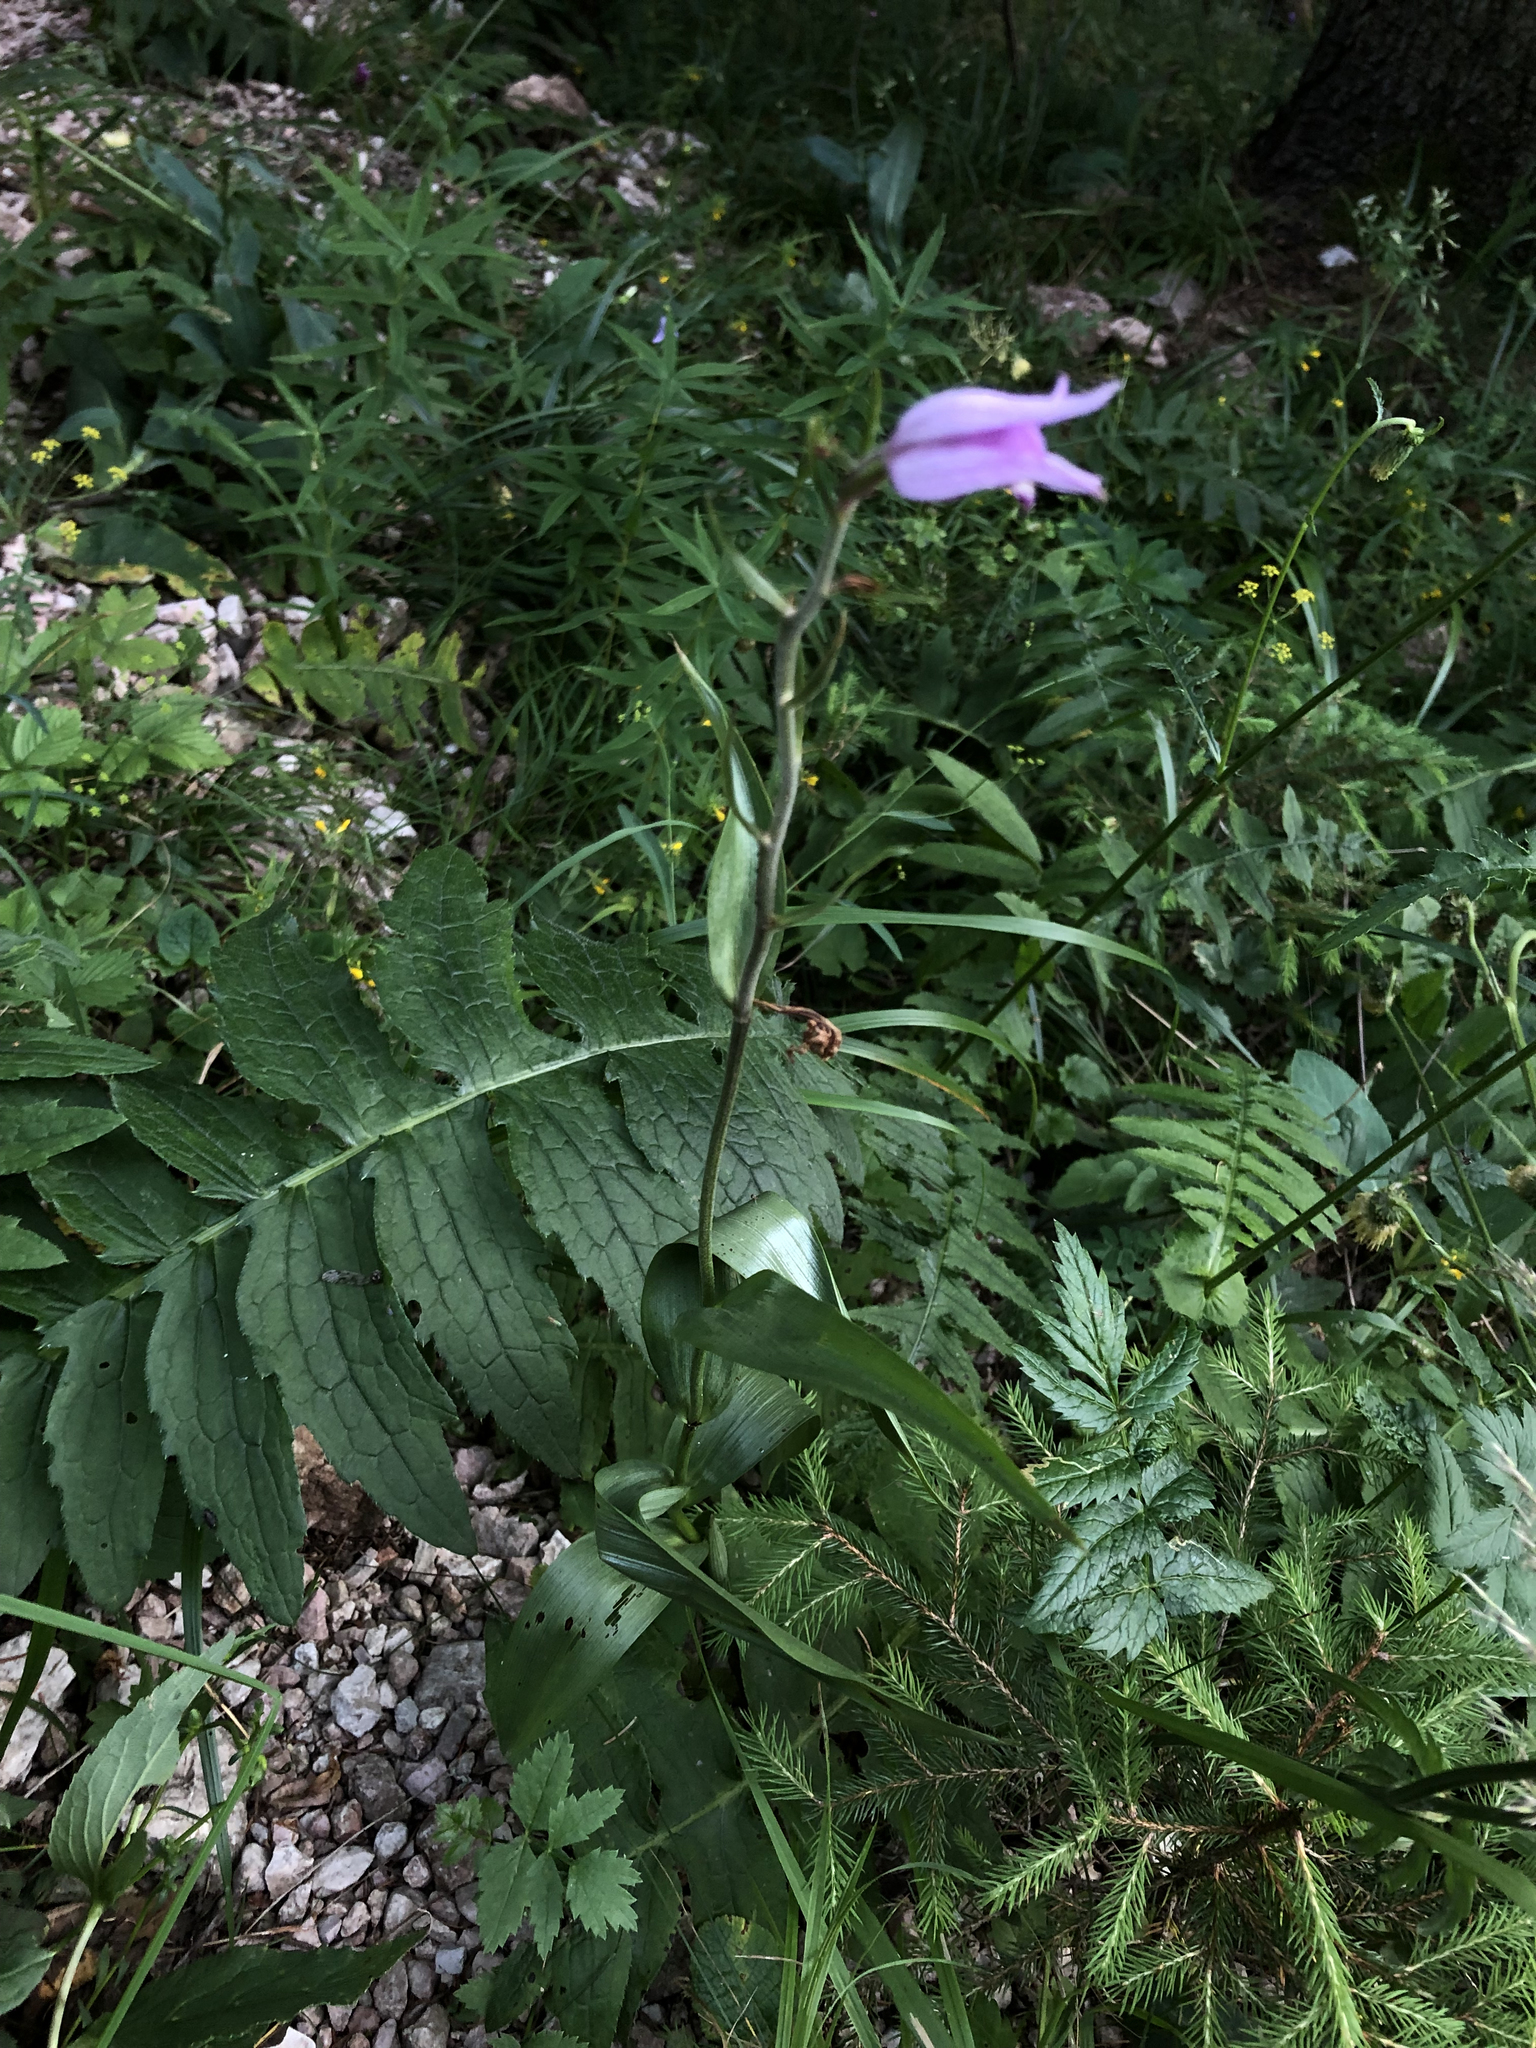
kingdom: Plantae
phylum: Tracheophyta
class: Liliopsida
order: Asparagales
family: Orchidaceae
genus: Cephalanthera
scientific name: Cephalanthera rubra
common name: Red helleborine
